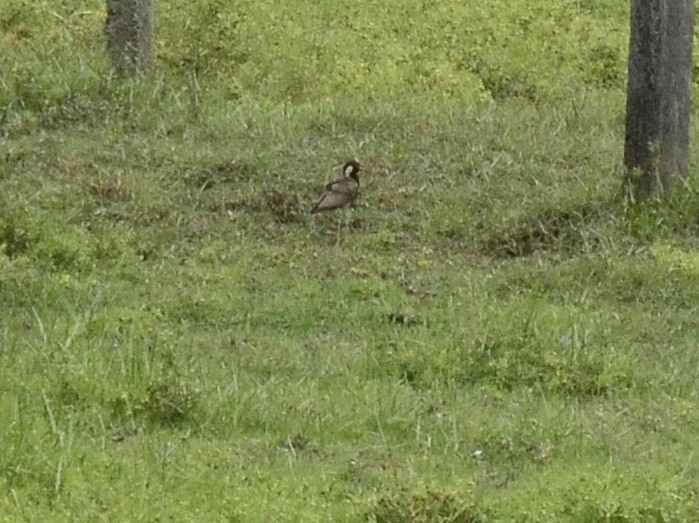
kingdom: Animalia
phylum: Chordata
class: Aves
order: Charadriiformes
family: Charadriidae
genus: Vanellus
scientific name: Vanellus indicus
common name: Red-wattled lapwing
